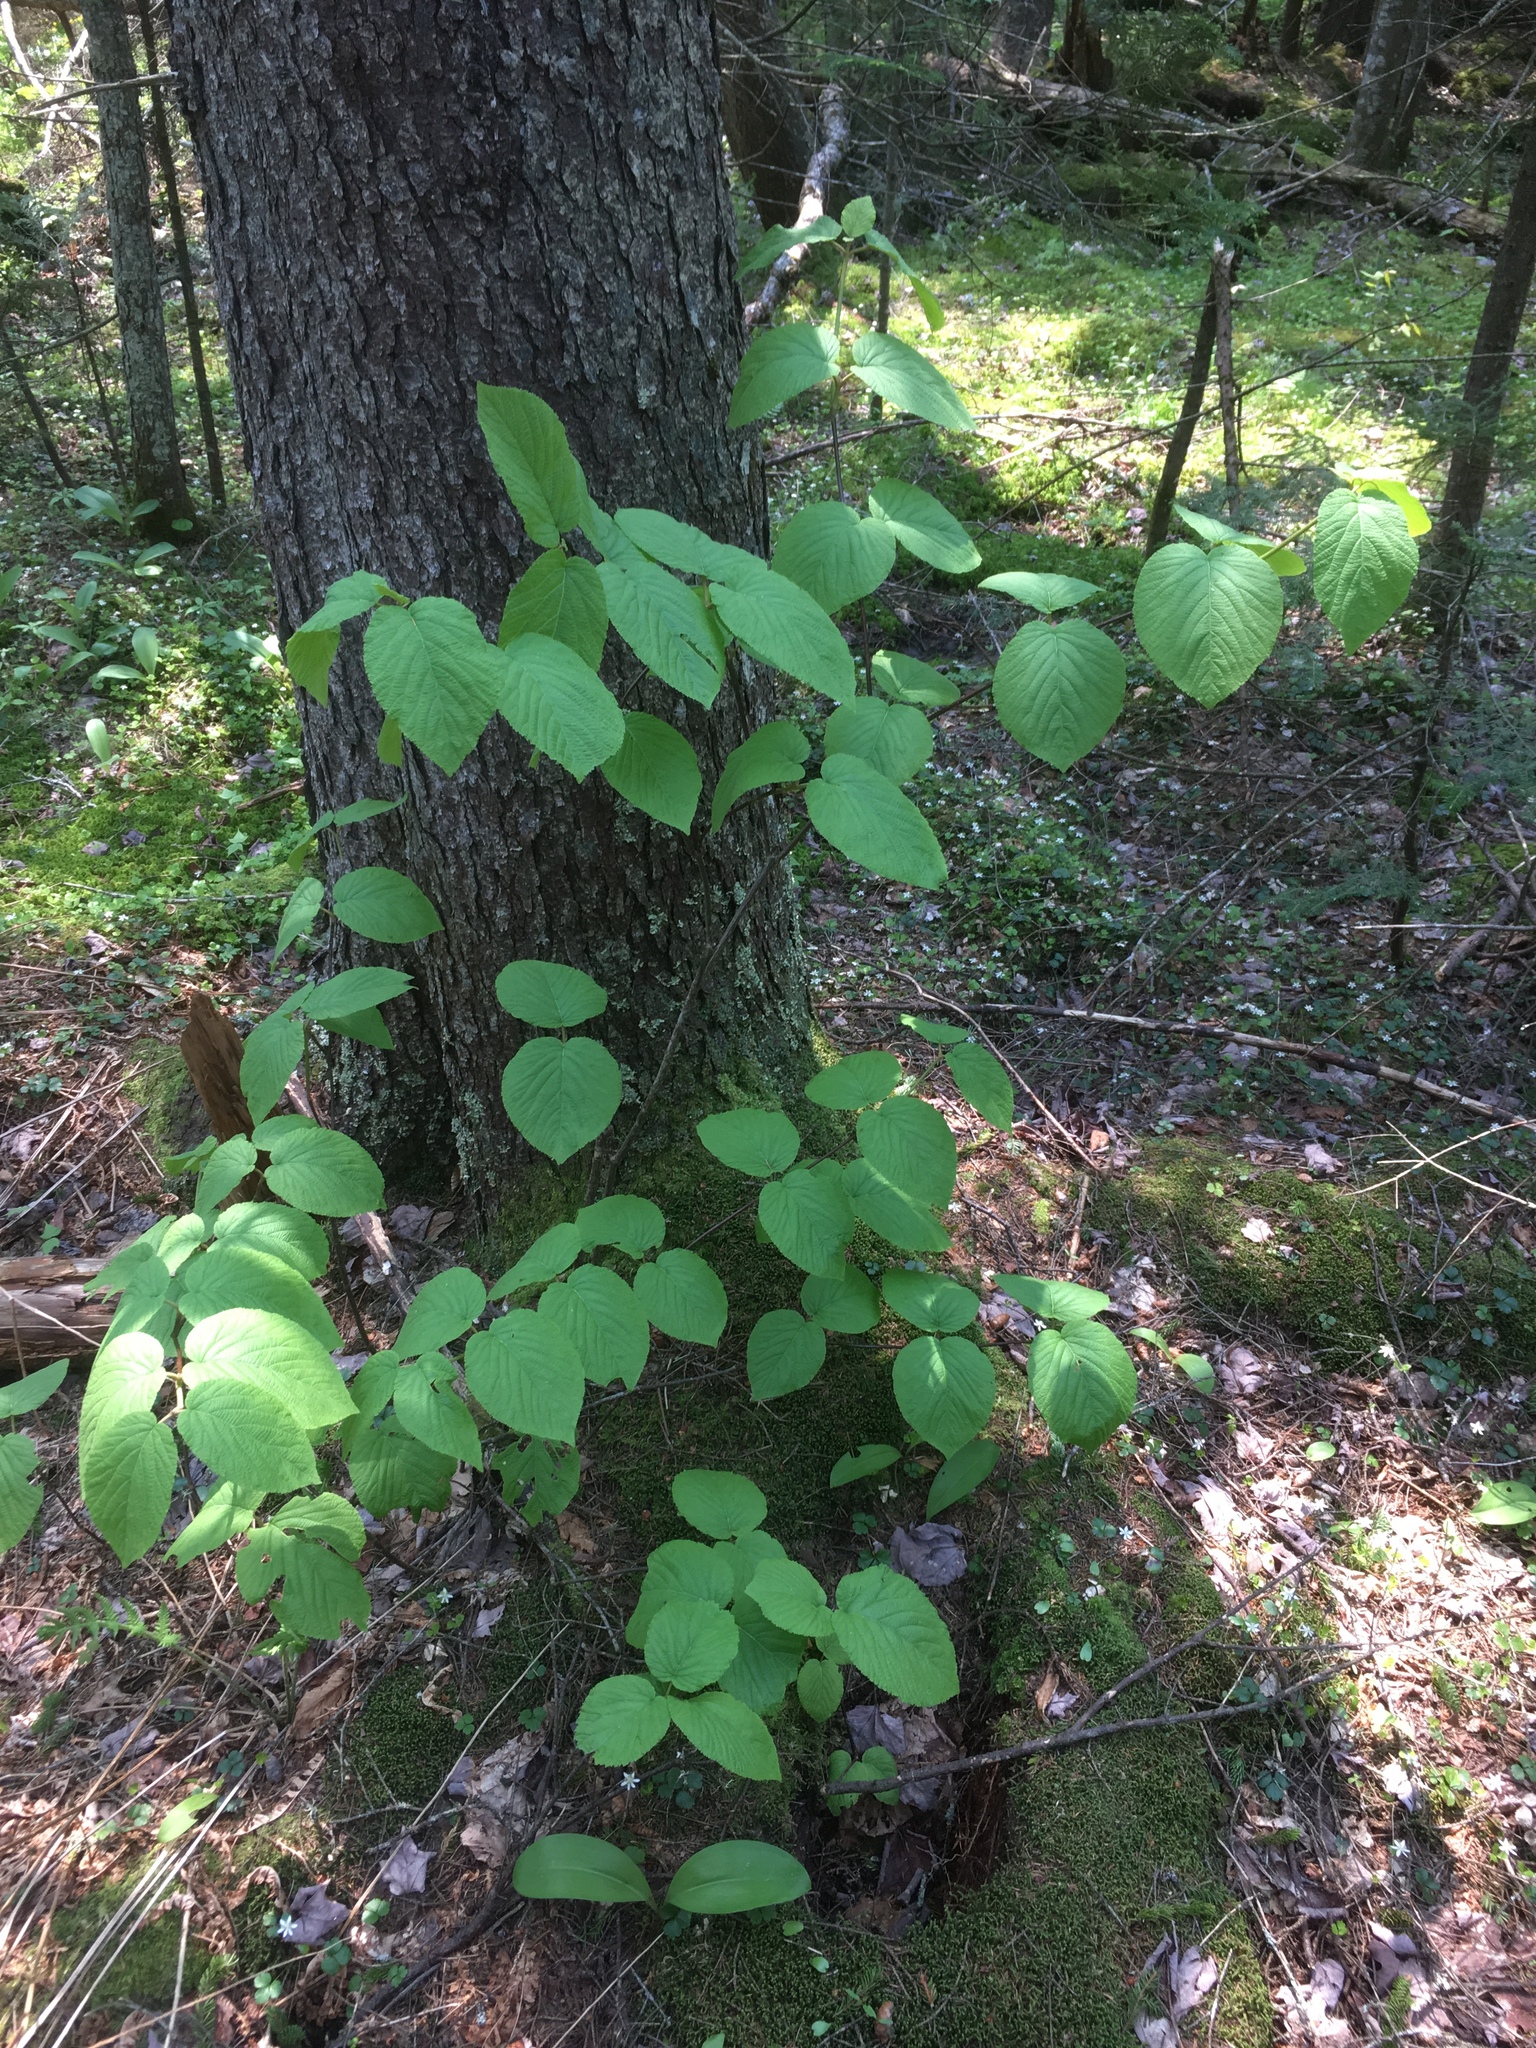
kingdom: Plantae
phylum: Tracheophyta
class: Magnoliopsida
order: Dipsacales
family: Viburnaceae
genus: Viburnum
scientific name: Viburnum lantanoides
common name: Hobblebush
